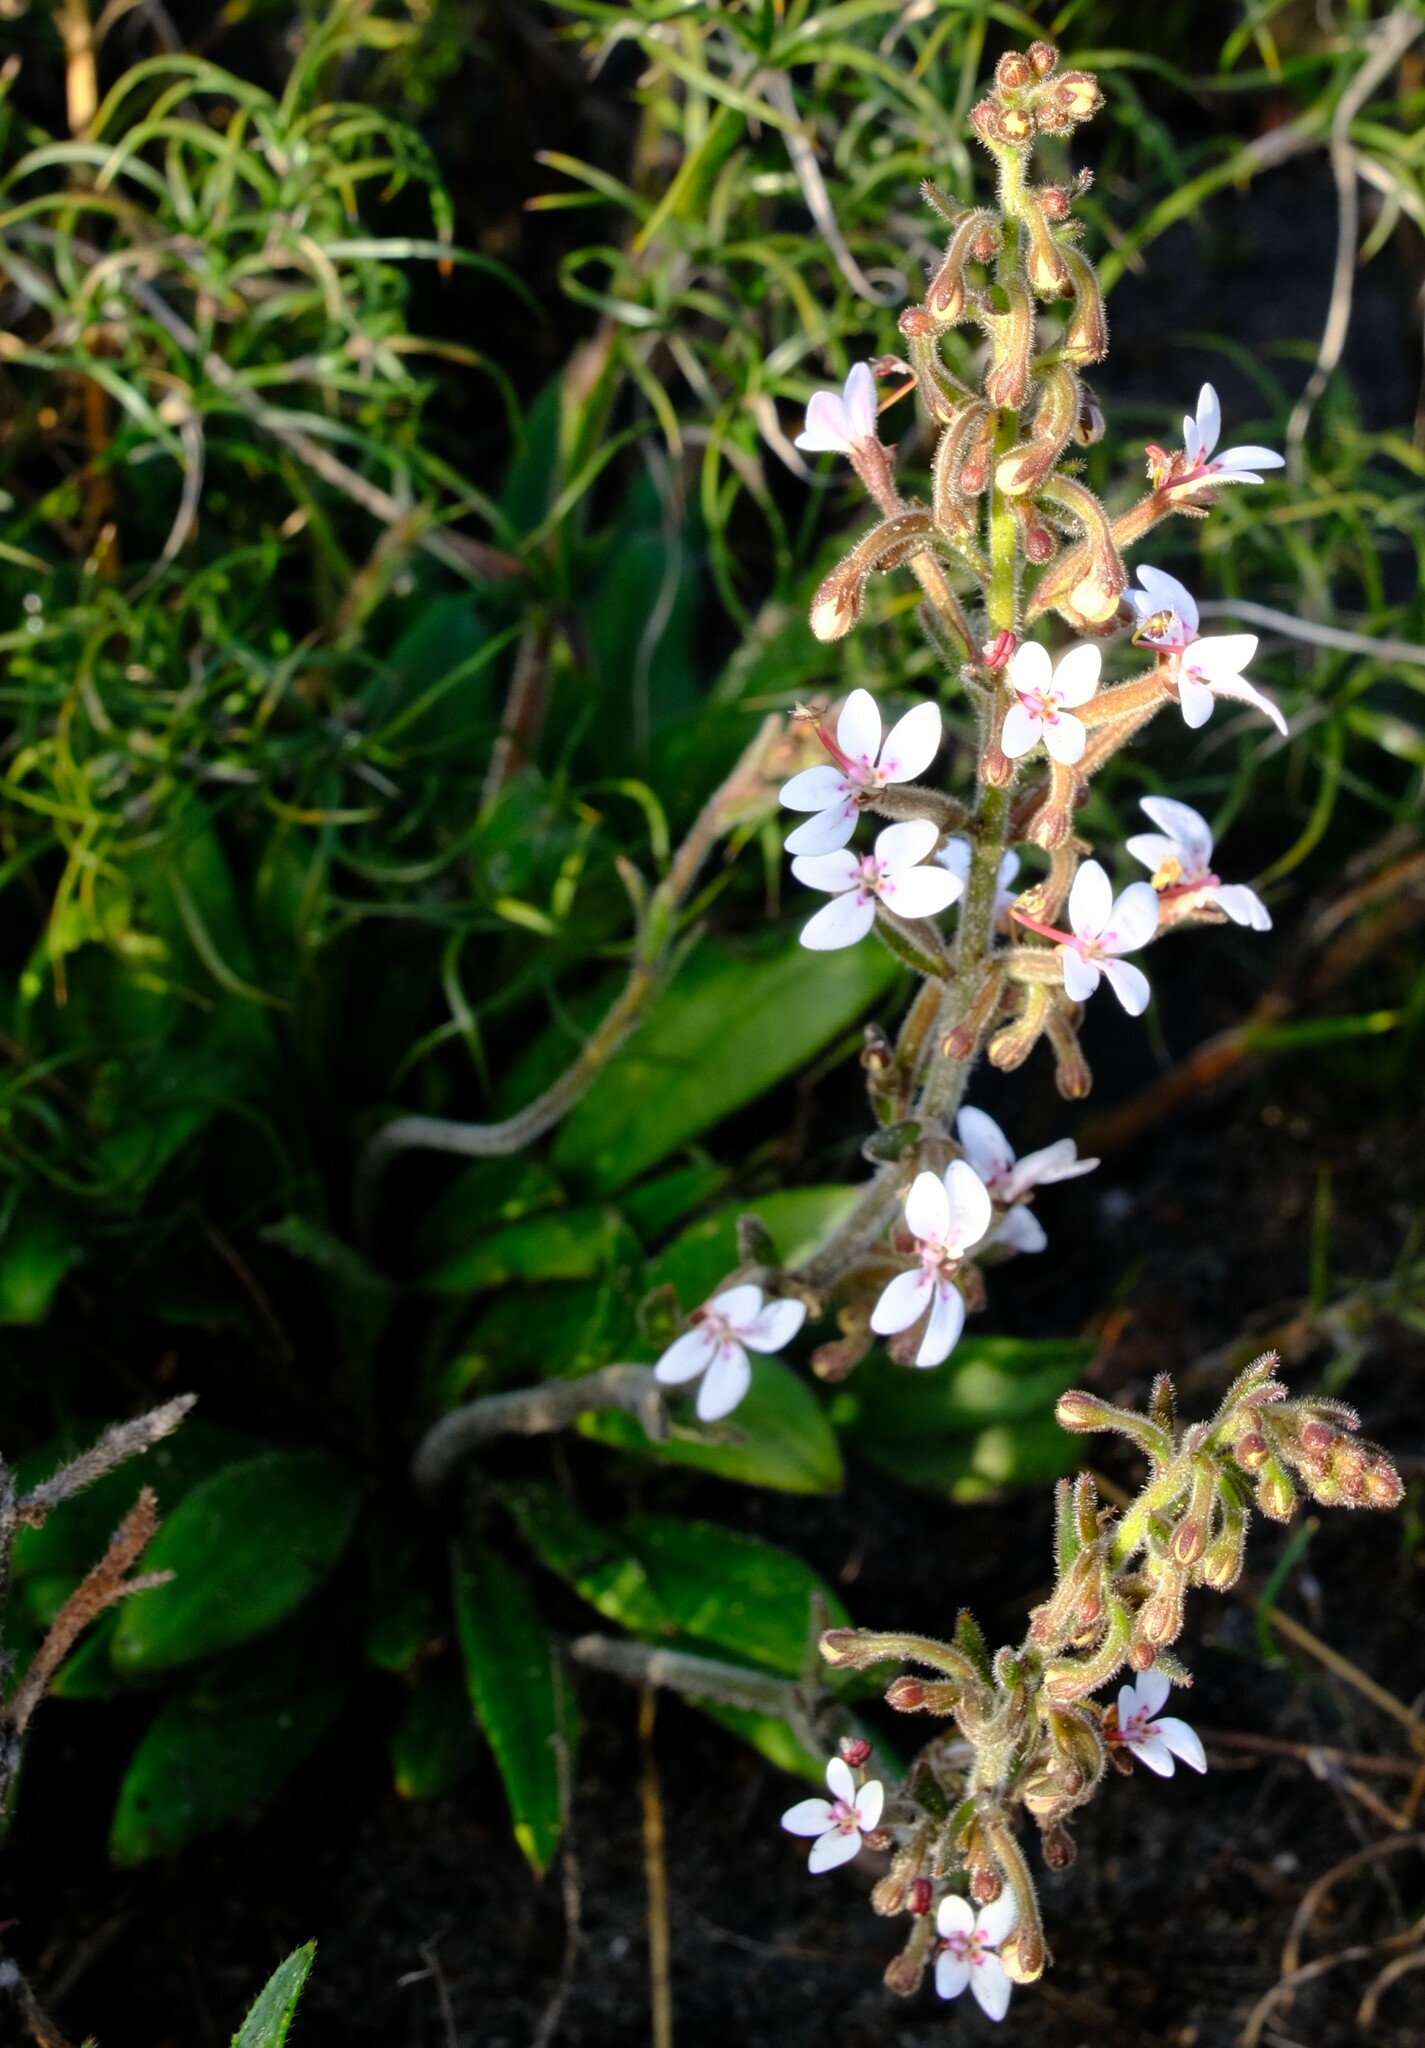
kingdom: Plantae
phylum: Tracheophyta
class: Magnoliopsida
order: Asterales
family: Stylidiaceae
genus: Stylidium
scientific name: Stylidium pycnostachyum
